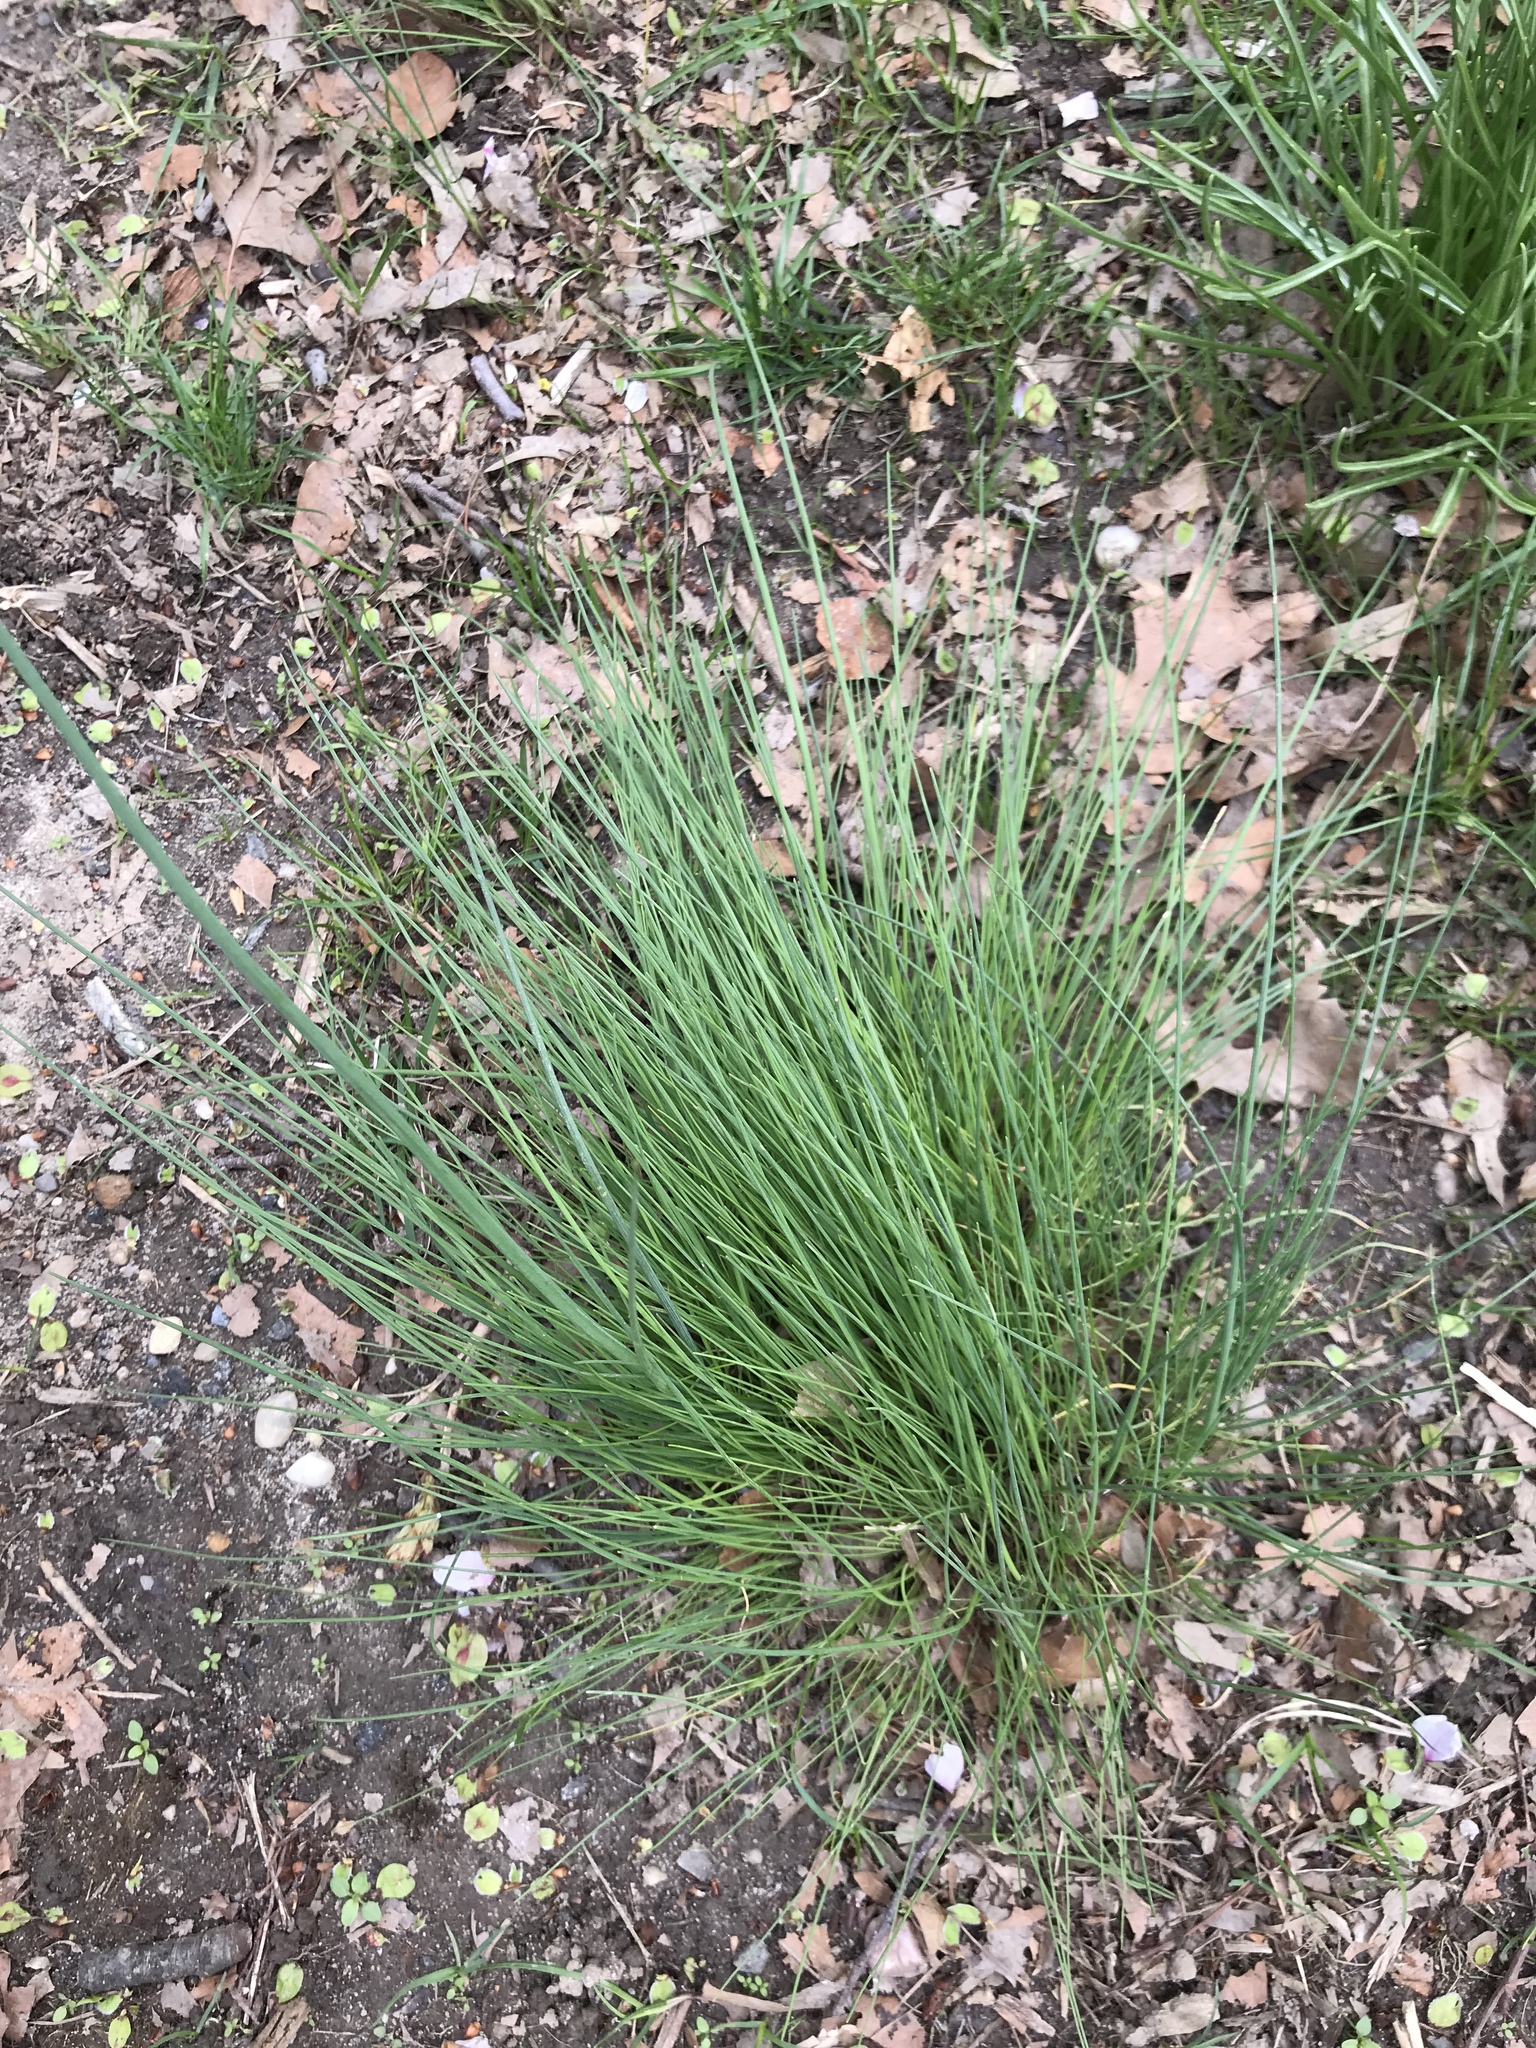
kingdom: Plantae
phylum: Tracheophyta
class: Liliopsida
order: Asparagales
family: Amaryllidaceae
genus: Allium
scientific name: Allium vineale
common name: Crow garlic
